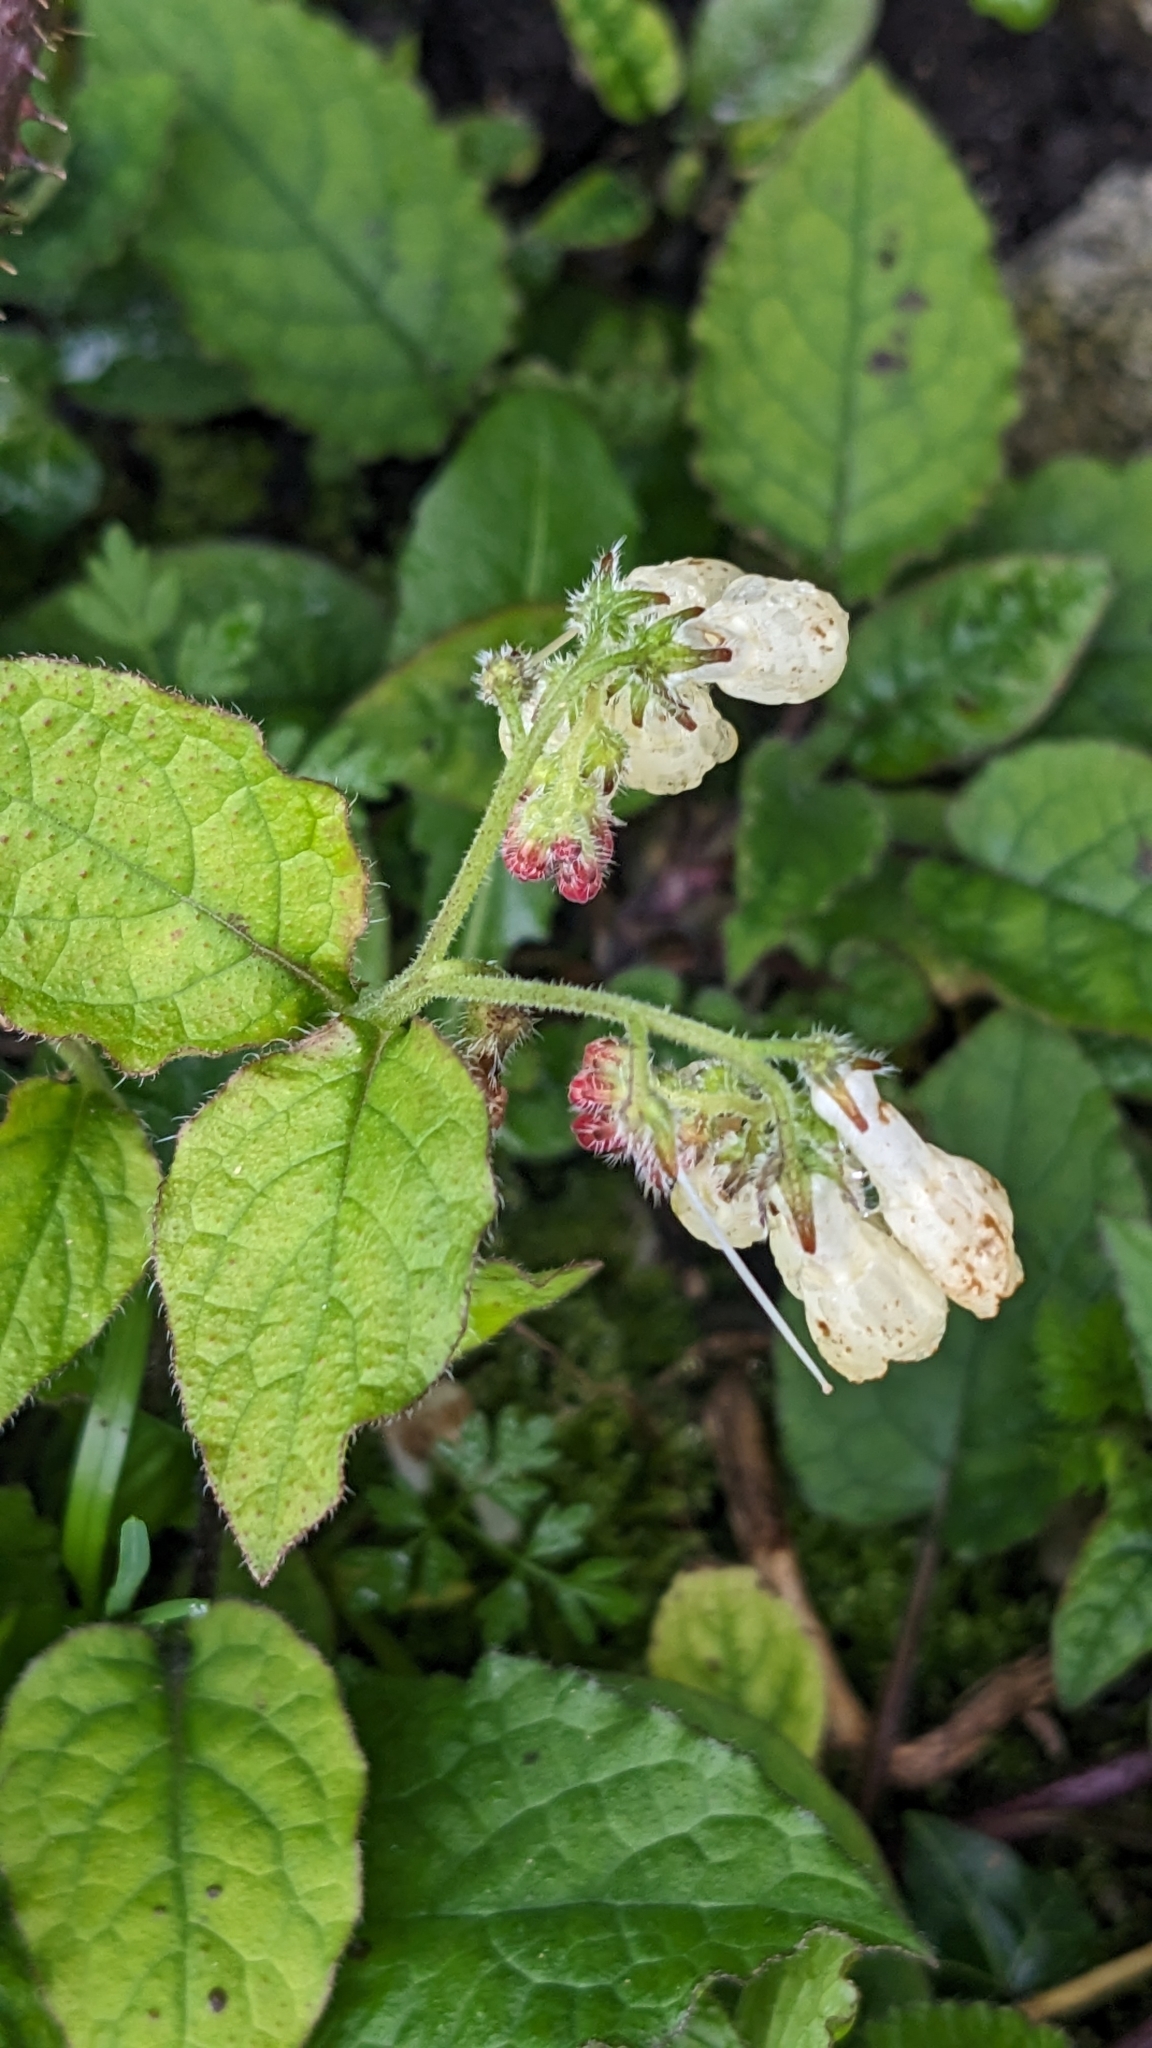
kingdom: Plantae
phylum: Tracheophyta
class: Magnoliopsida
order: Boraginales
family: Boraginaceae
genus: Symphytum
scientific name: Symphytum grandiflorum
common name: Creeping comfrey
